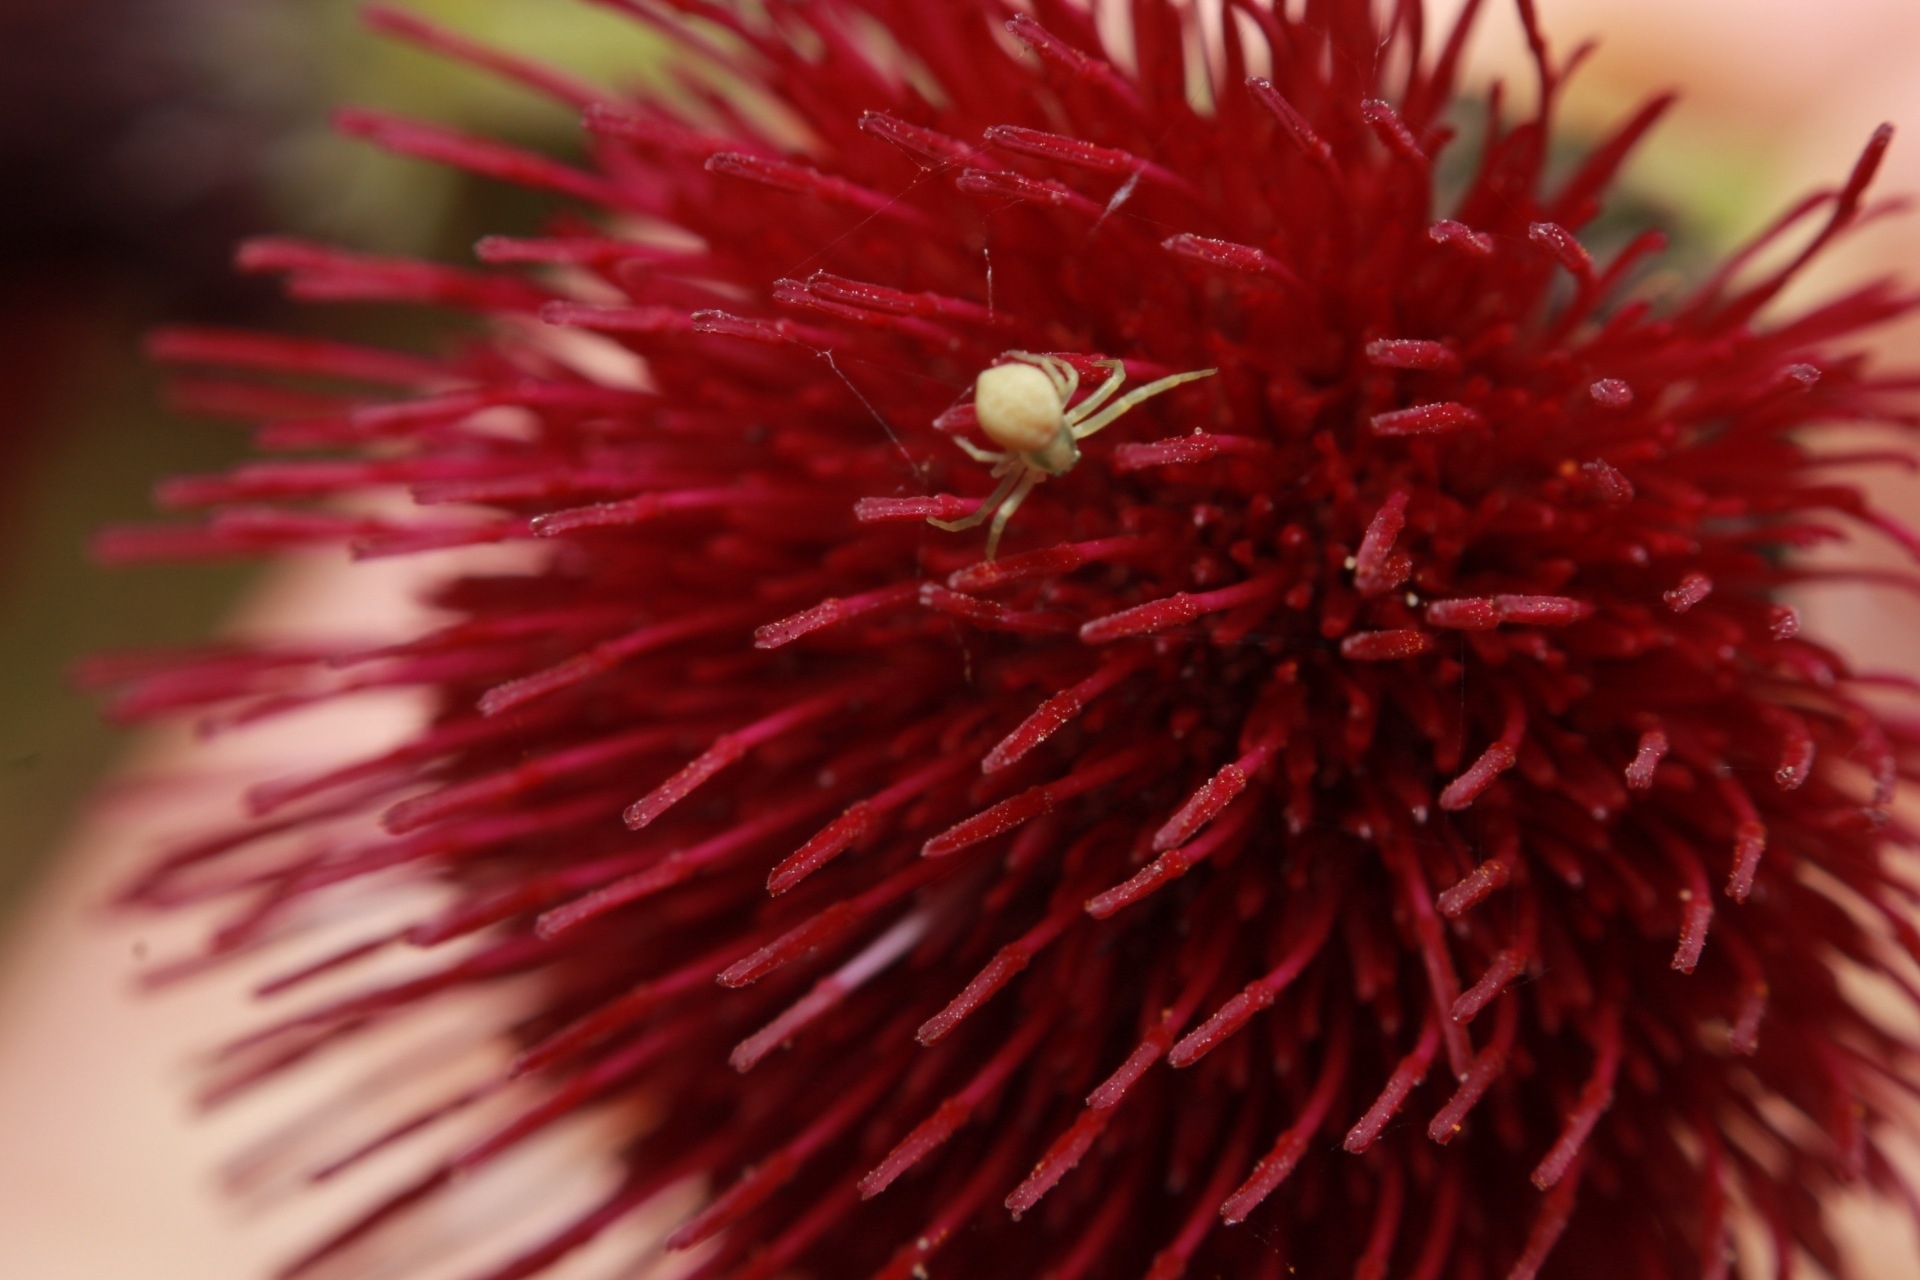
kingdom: Animalia
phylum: Arthropoda
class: Arachnida
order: Araneae
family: Thomisidae
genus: Misumena
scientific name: Misumena vatia
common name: Goldenrod crab spider
